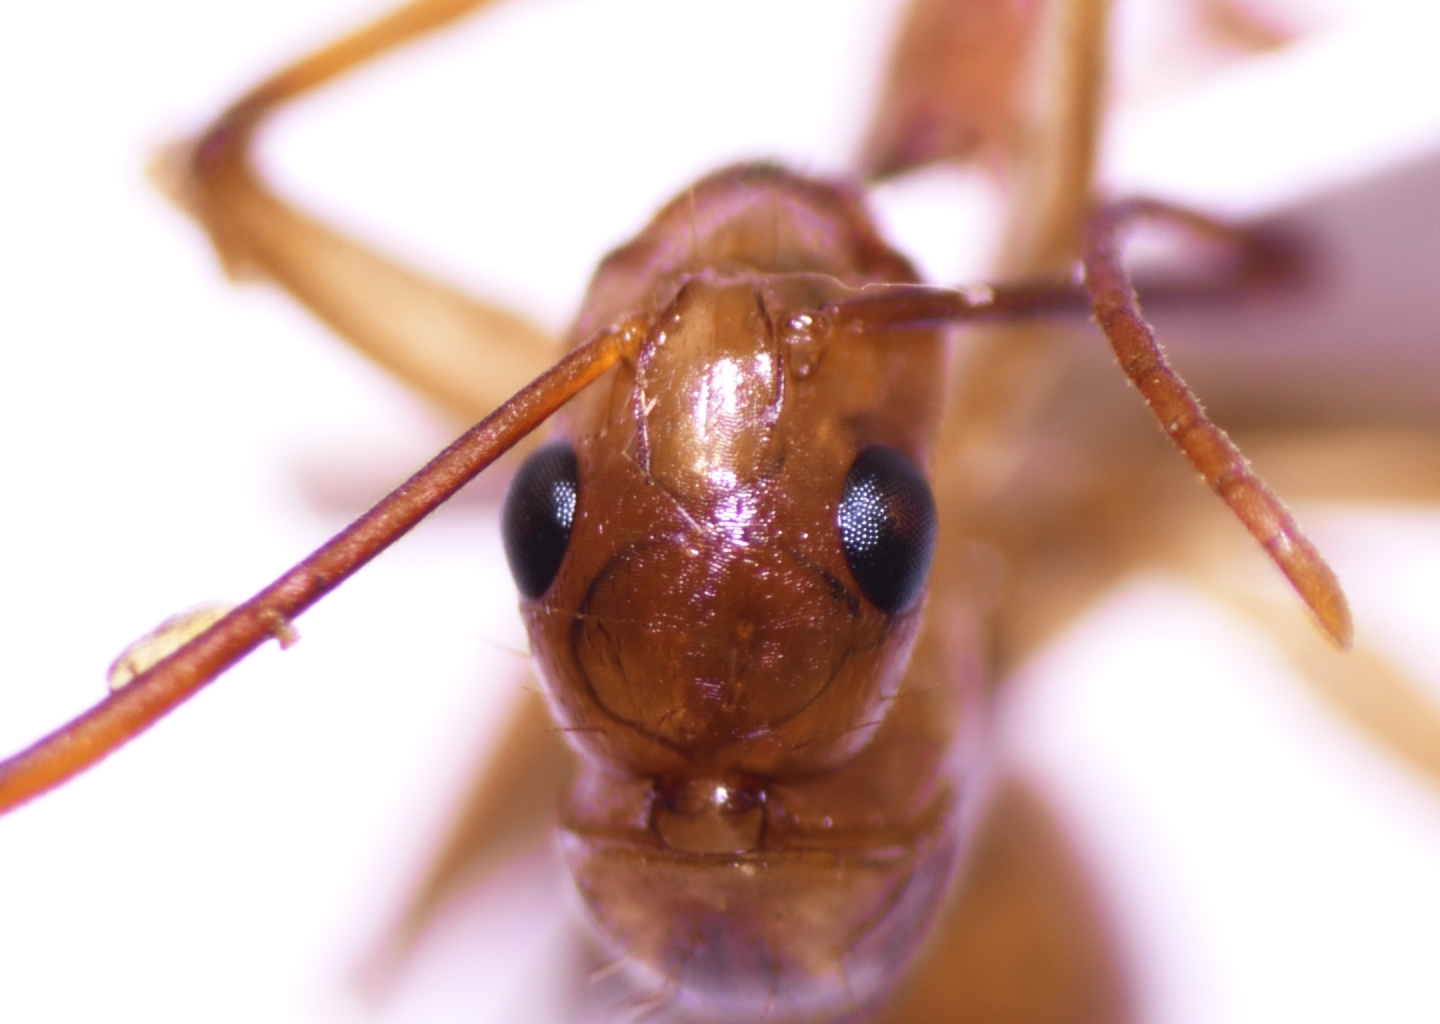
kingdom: Animalia
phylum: Arthropoda
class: Insecta
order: Hymenoptera
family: Formicidae
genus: Camponotus
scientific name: Camponotus chloroticus
